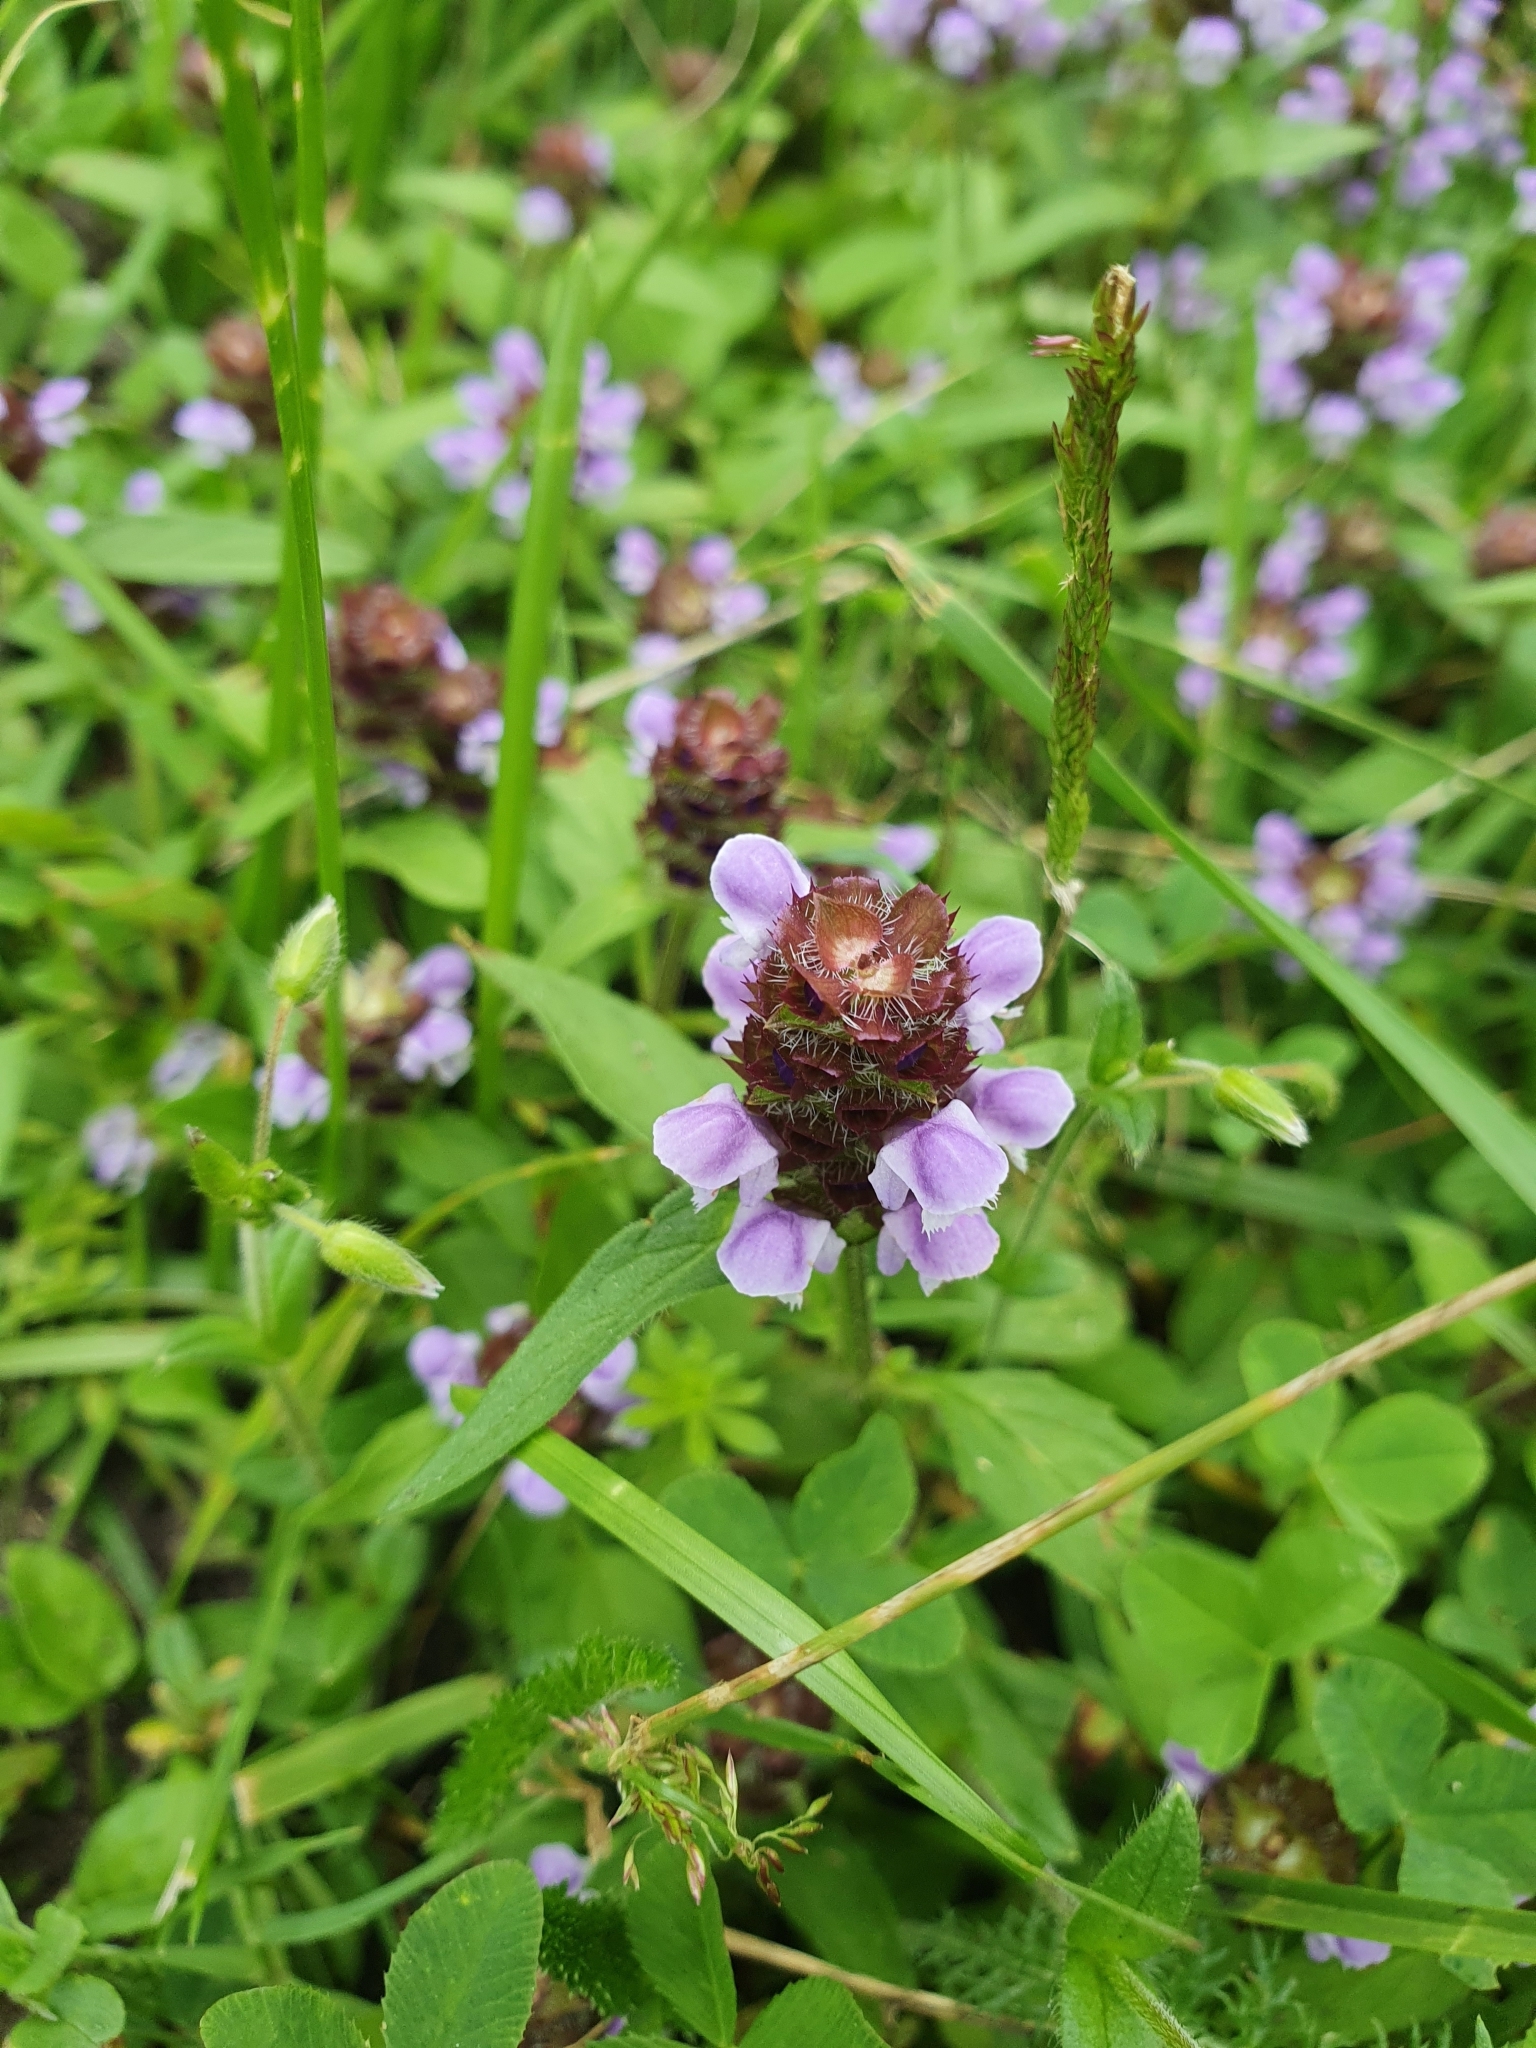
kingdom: Plantae
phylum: Tracheophyta
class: Magnoliopsida
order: Lamiales
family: Lamiaceae
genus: Prunella
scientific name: Prunella vulgaris
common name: Heal-all
